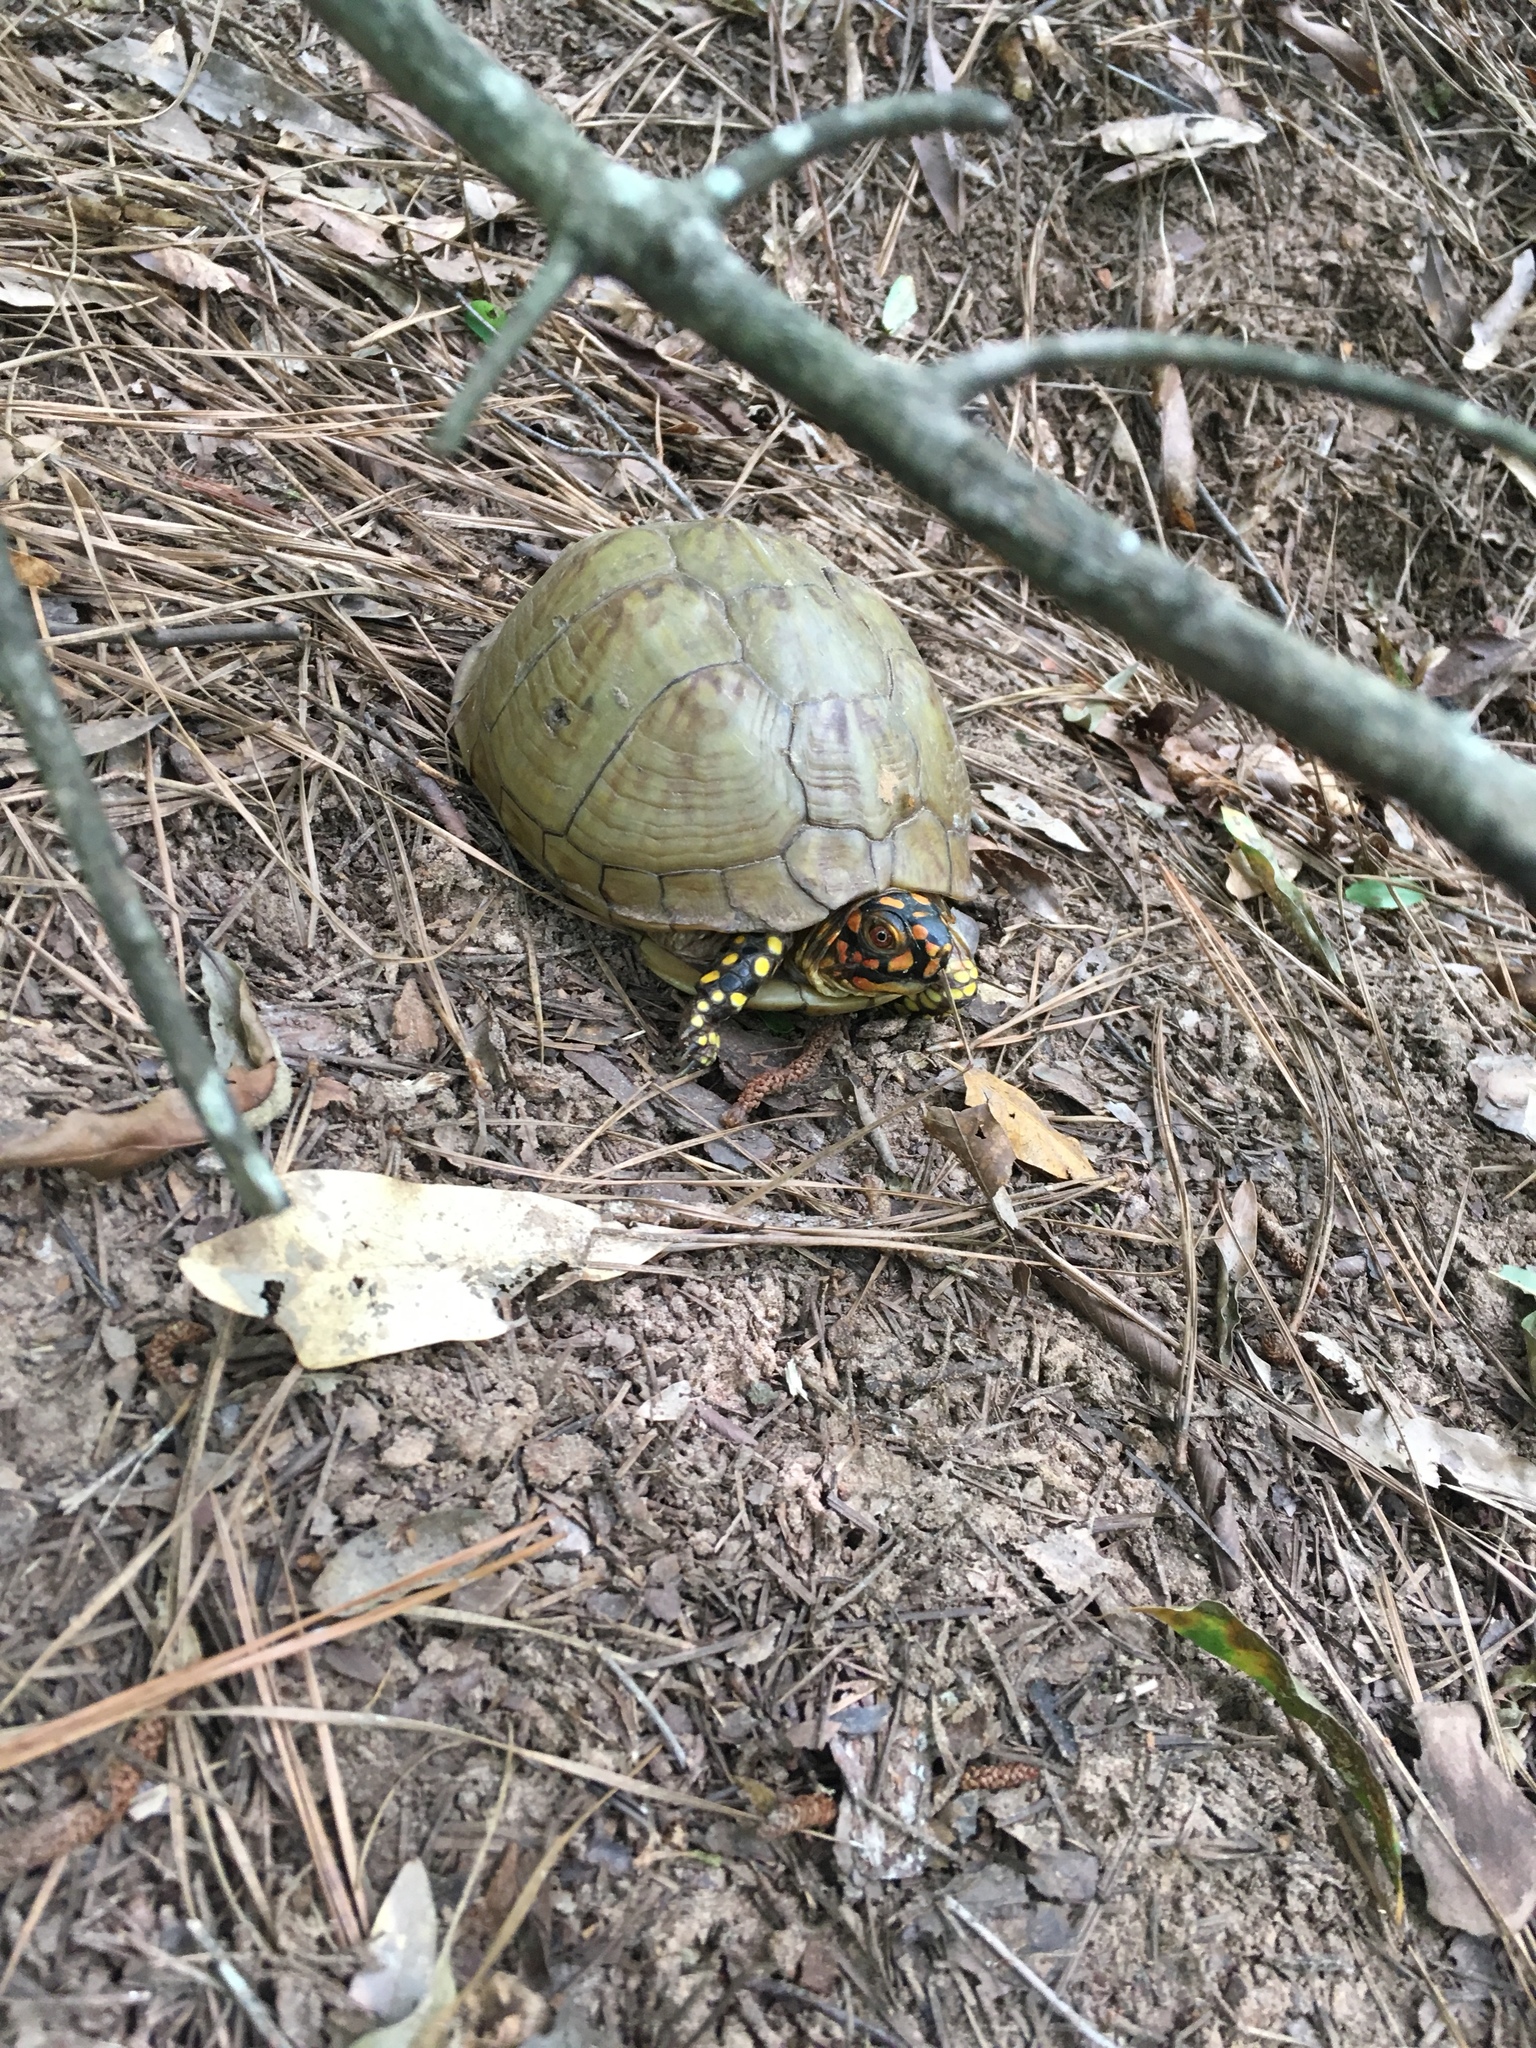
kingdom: Animalia
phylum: Chordata
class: Testudines
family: Emydidae
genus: Terrapene
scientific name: Terrapene carolina
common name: Common box turtle
